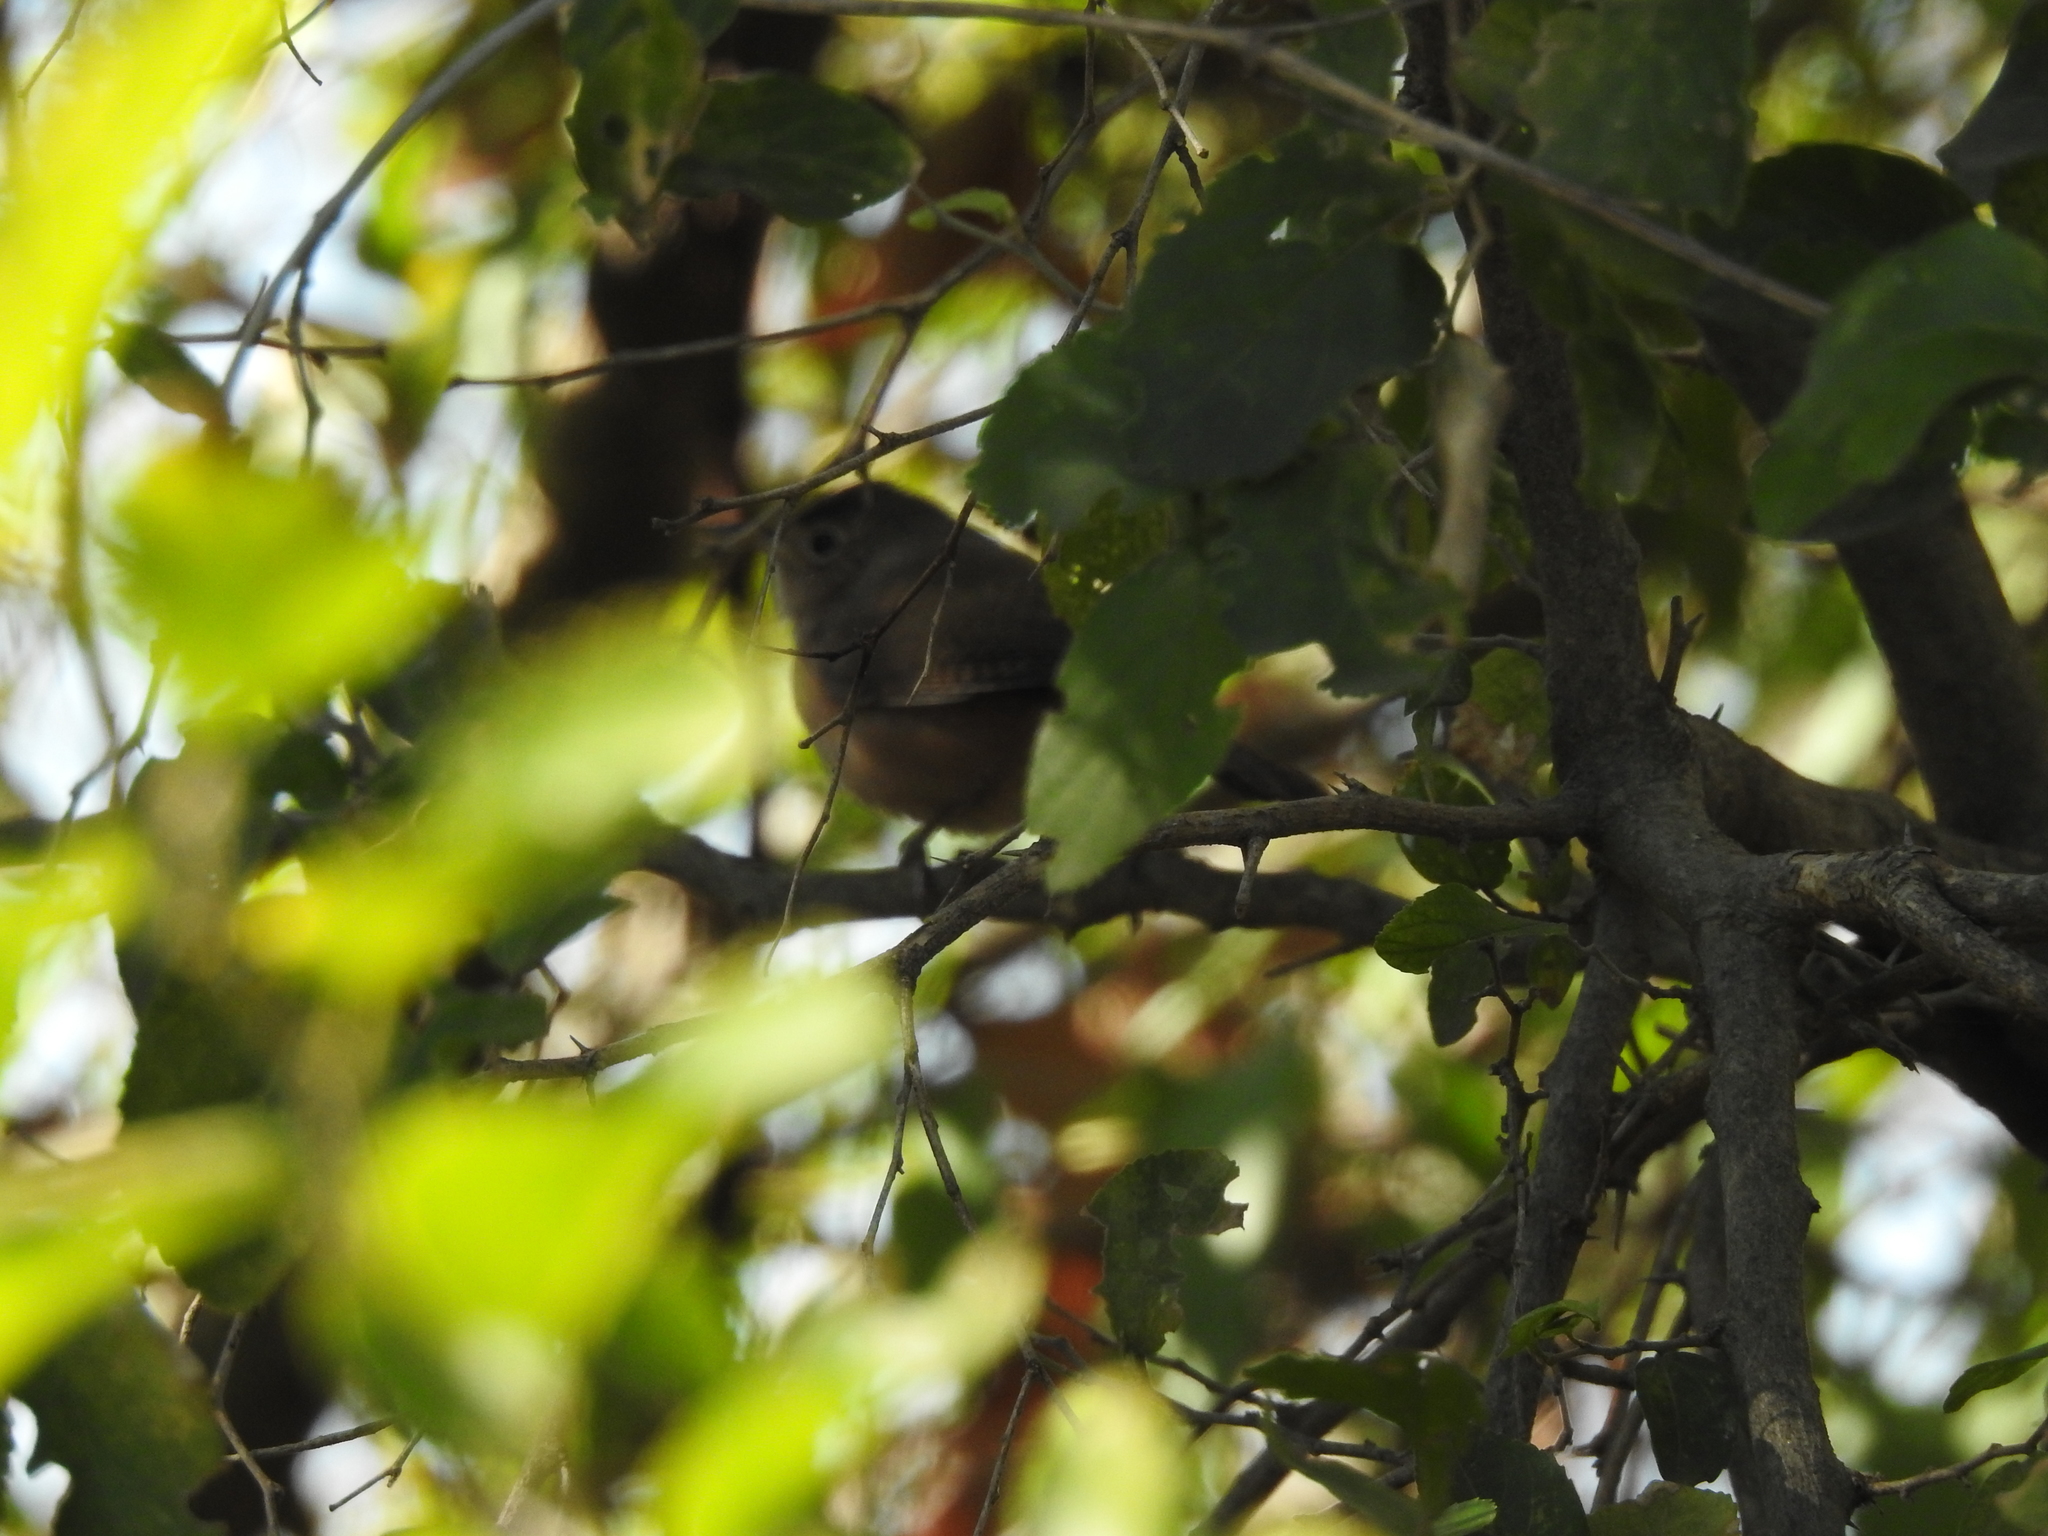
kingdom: Animalia
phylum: Chordata
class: Aves
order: Passeriformes
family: Troglodytidae
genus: Troglodytes
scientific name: Troglodytes aedon
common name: House wren
